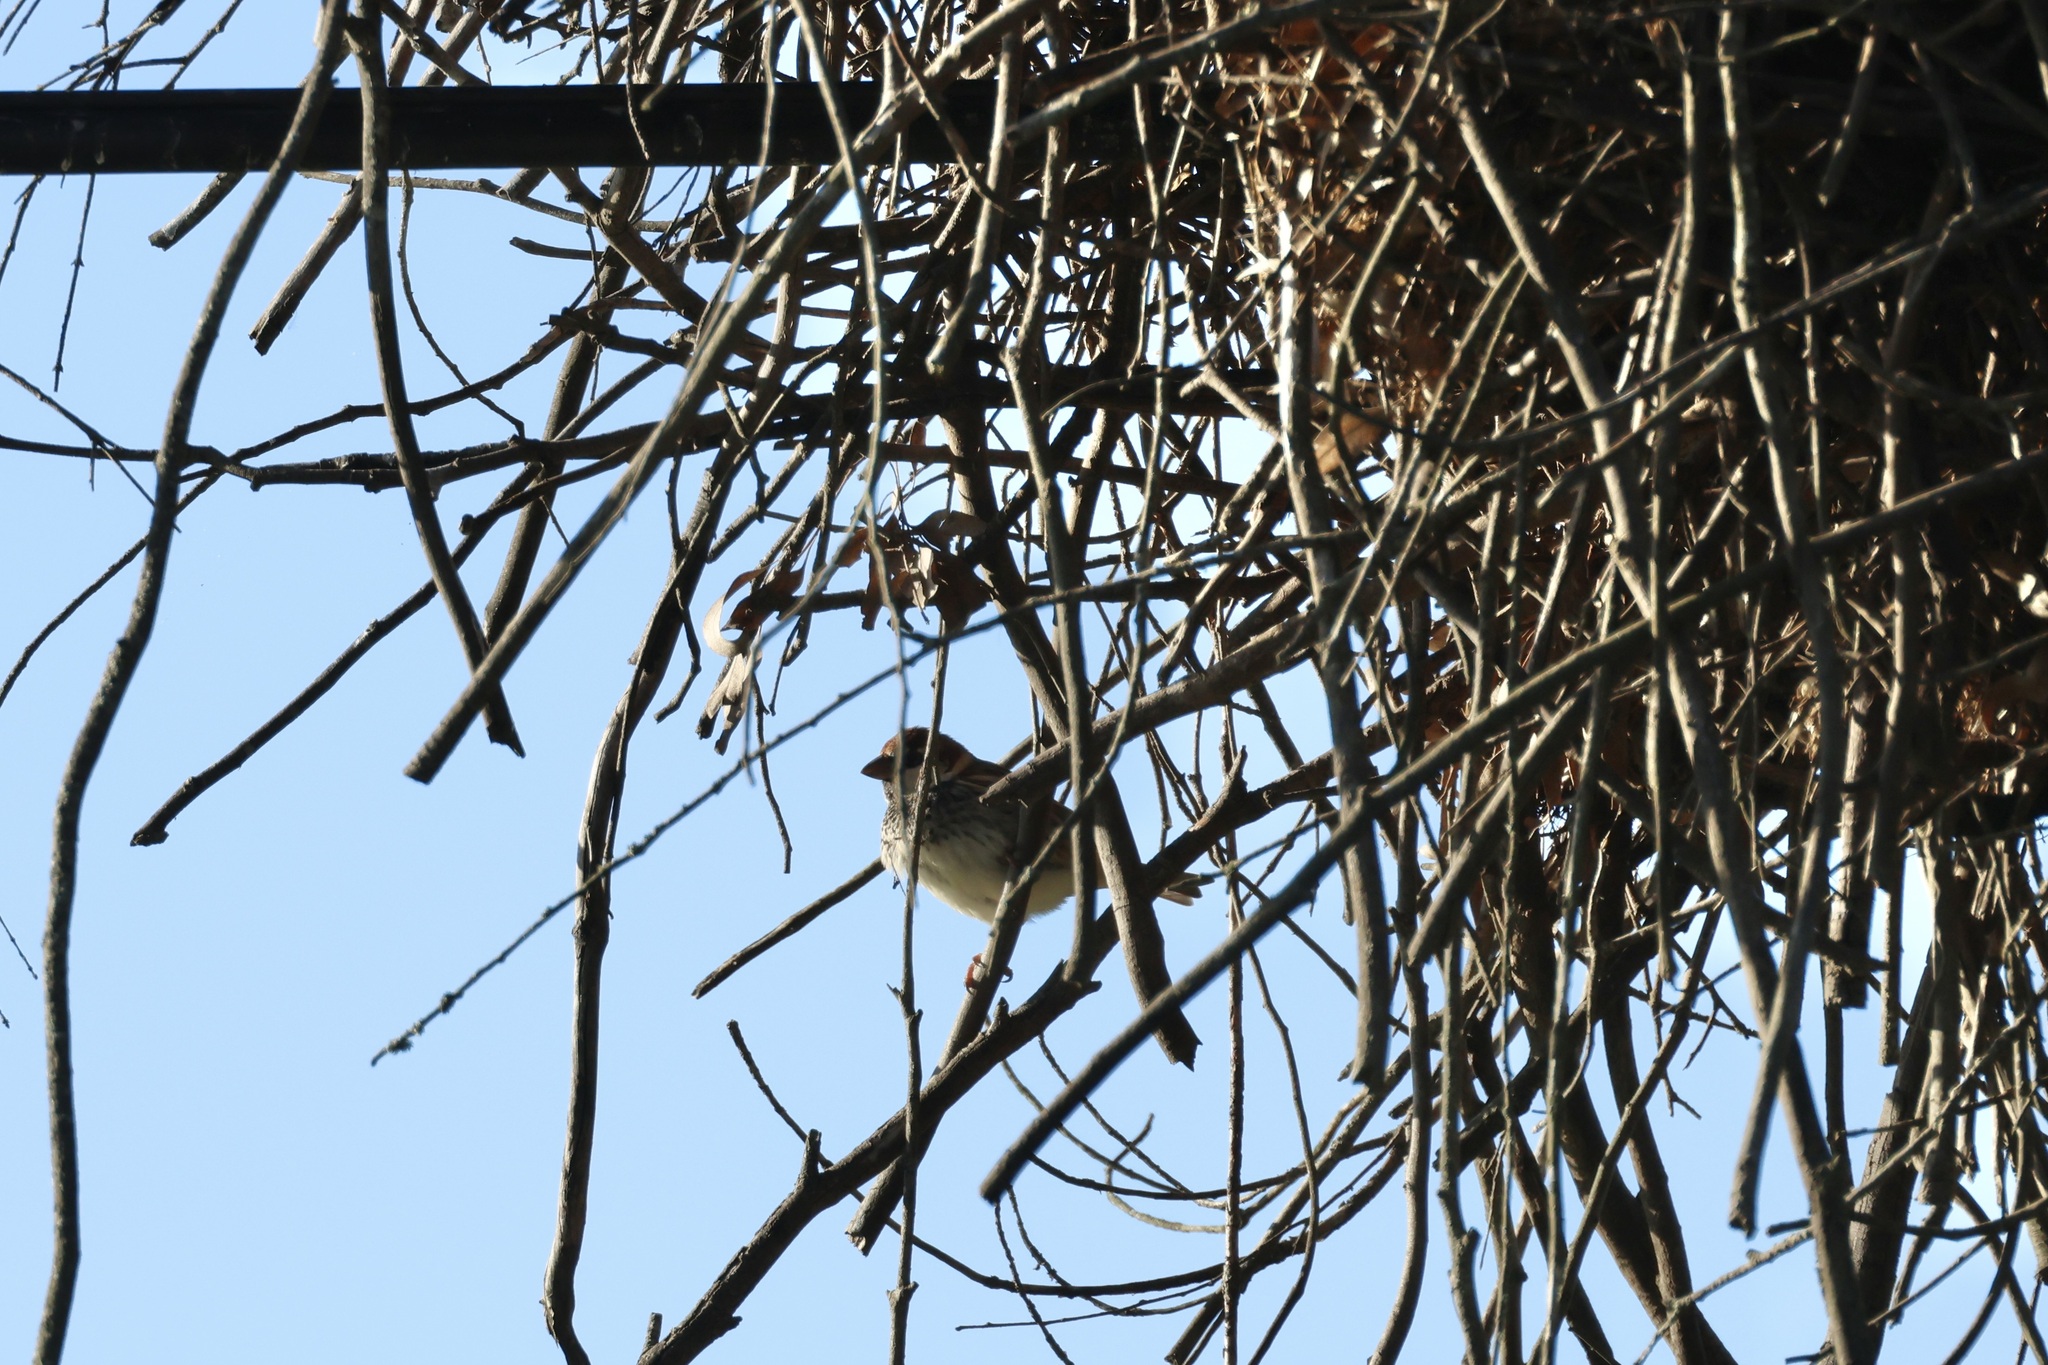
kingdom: Animalia
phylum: Chordata
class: Aves
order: Passeriformes
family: Passeridae
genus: Passer
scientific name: Passer hispaniolensis
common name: Spanish sparrow
